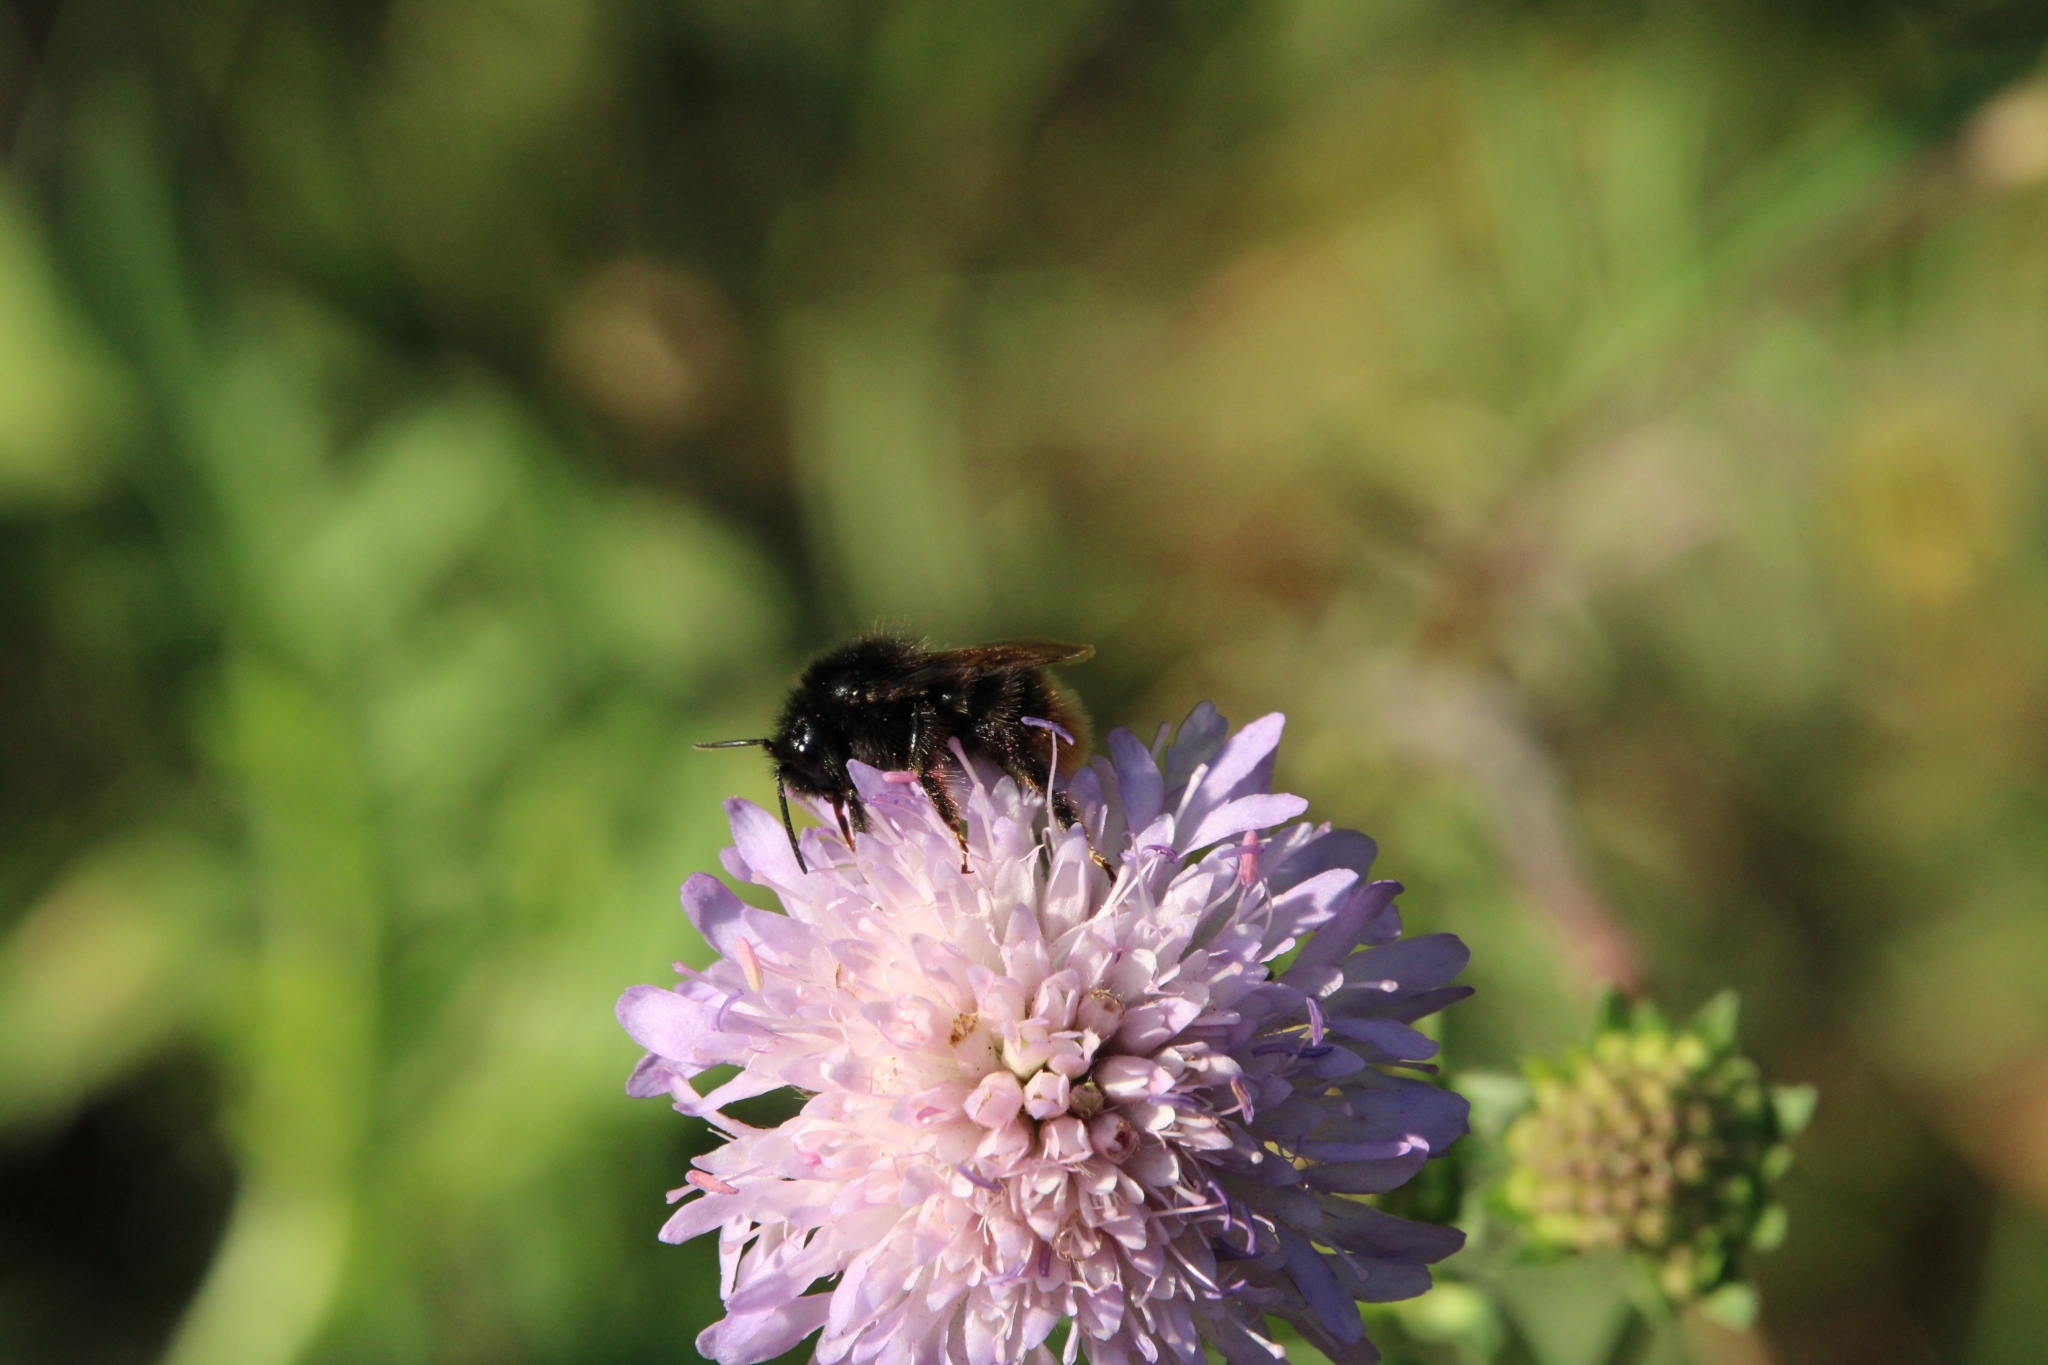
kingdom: Plantae
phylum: Tracheophyta
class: Magnoliopsida
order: Dipsacales
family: Caprifoliaceae
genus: Knautia
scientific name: Knautia arvensis
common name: Field scabiosa
